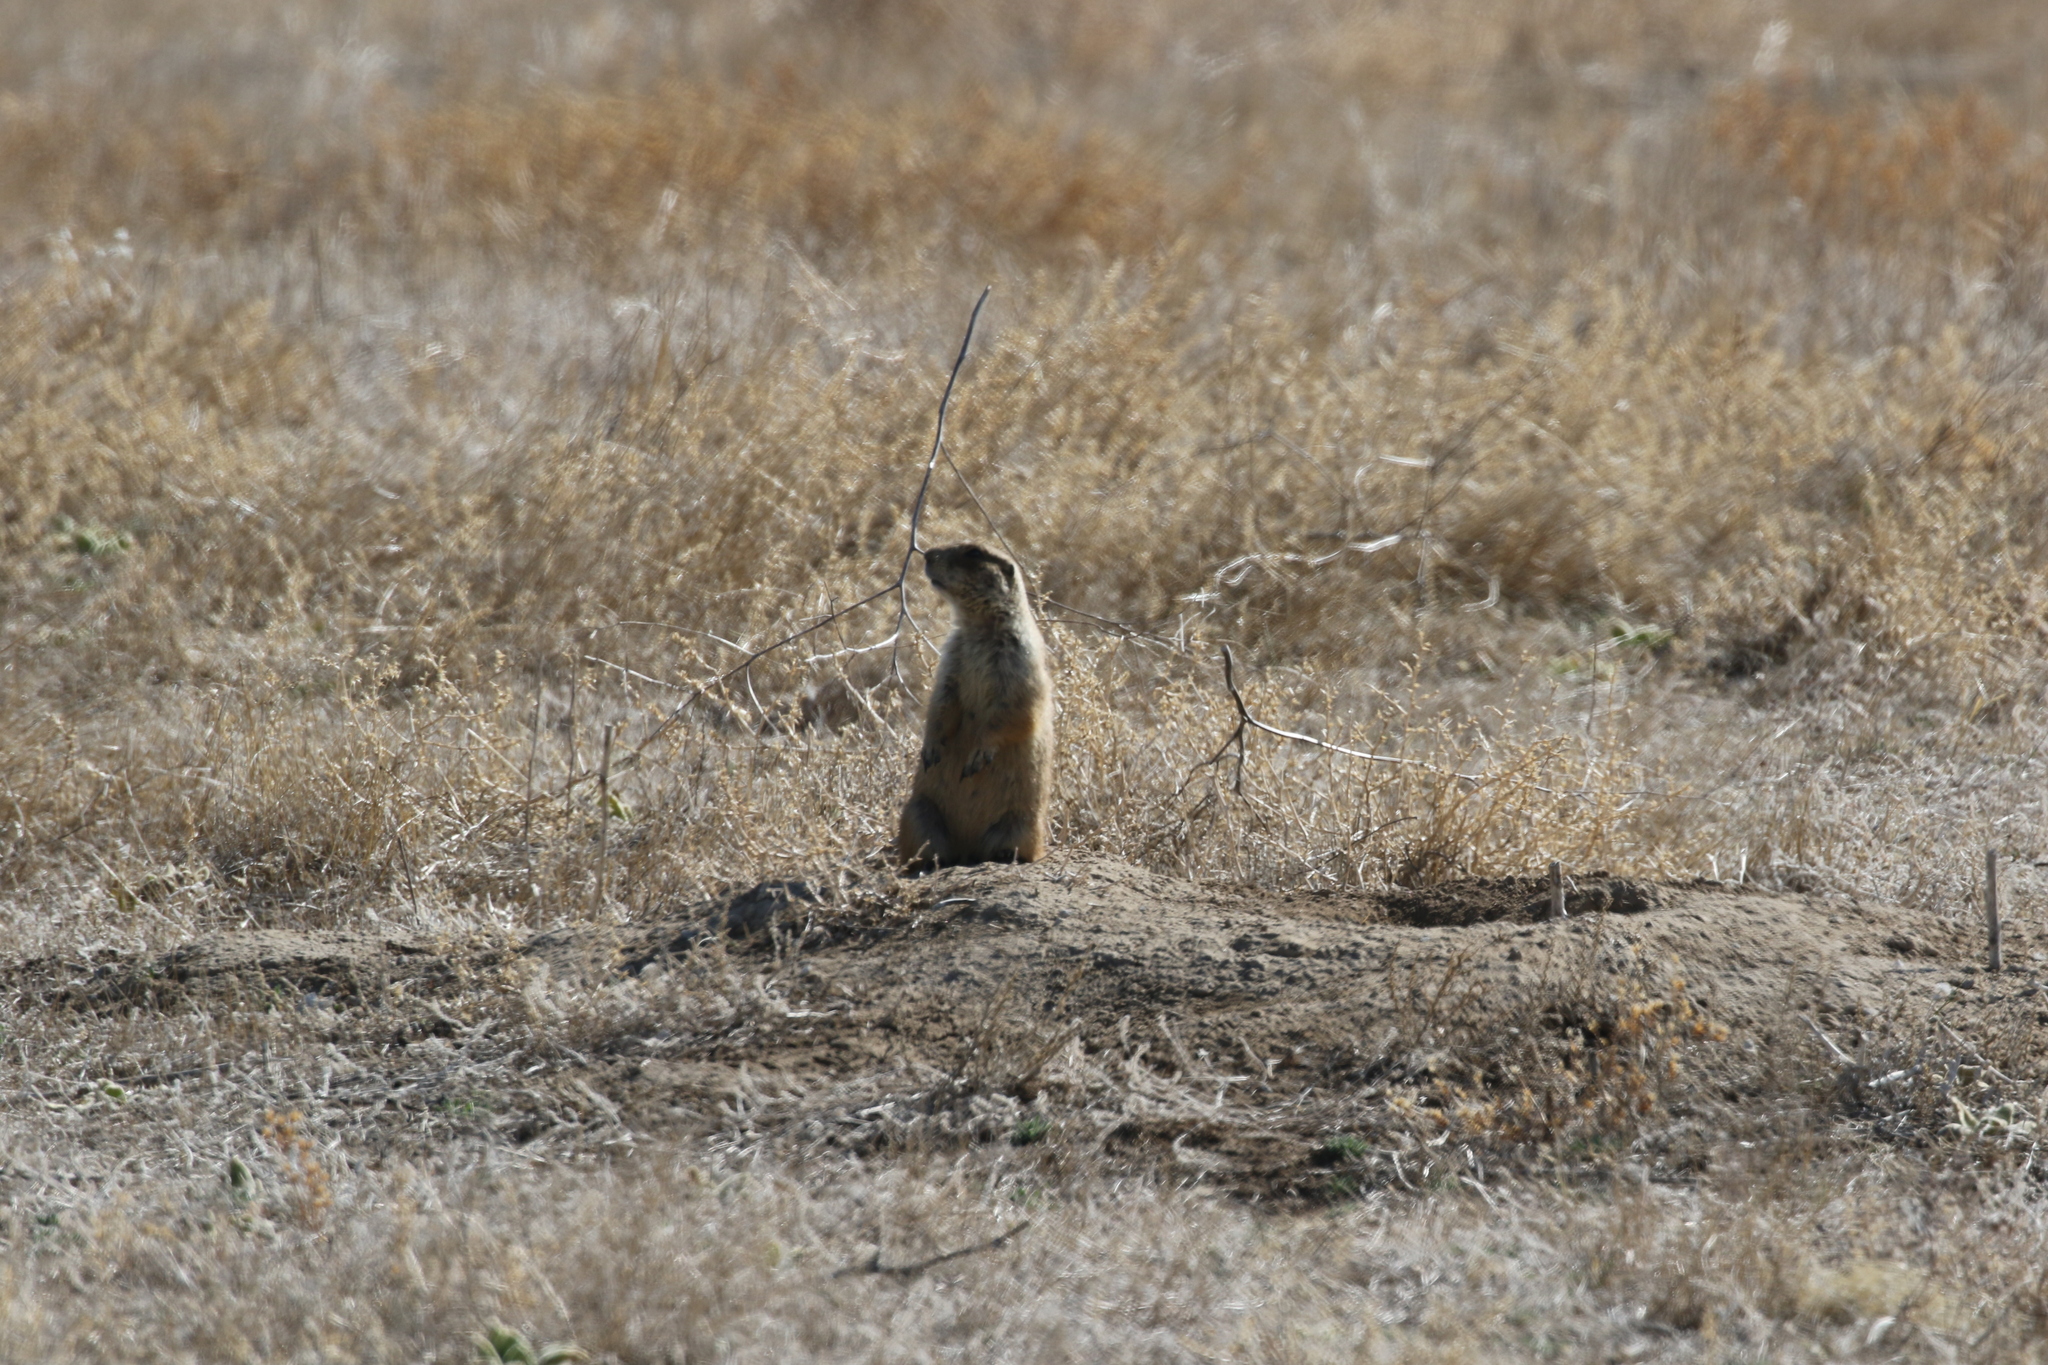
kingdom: Animalia
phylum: Chordata
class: Mammalia
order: Rodentia
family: Sciuridae
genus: Cynomys
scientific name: Cynomys ludovicianus
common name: Black-tailed prairie dog
